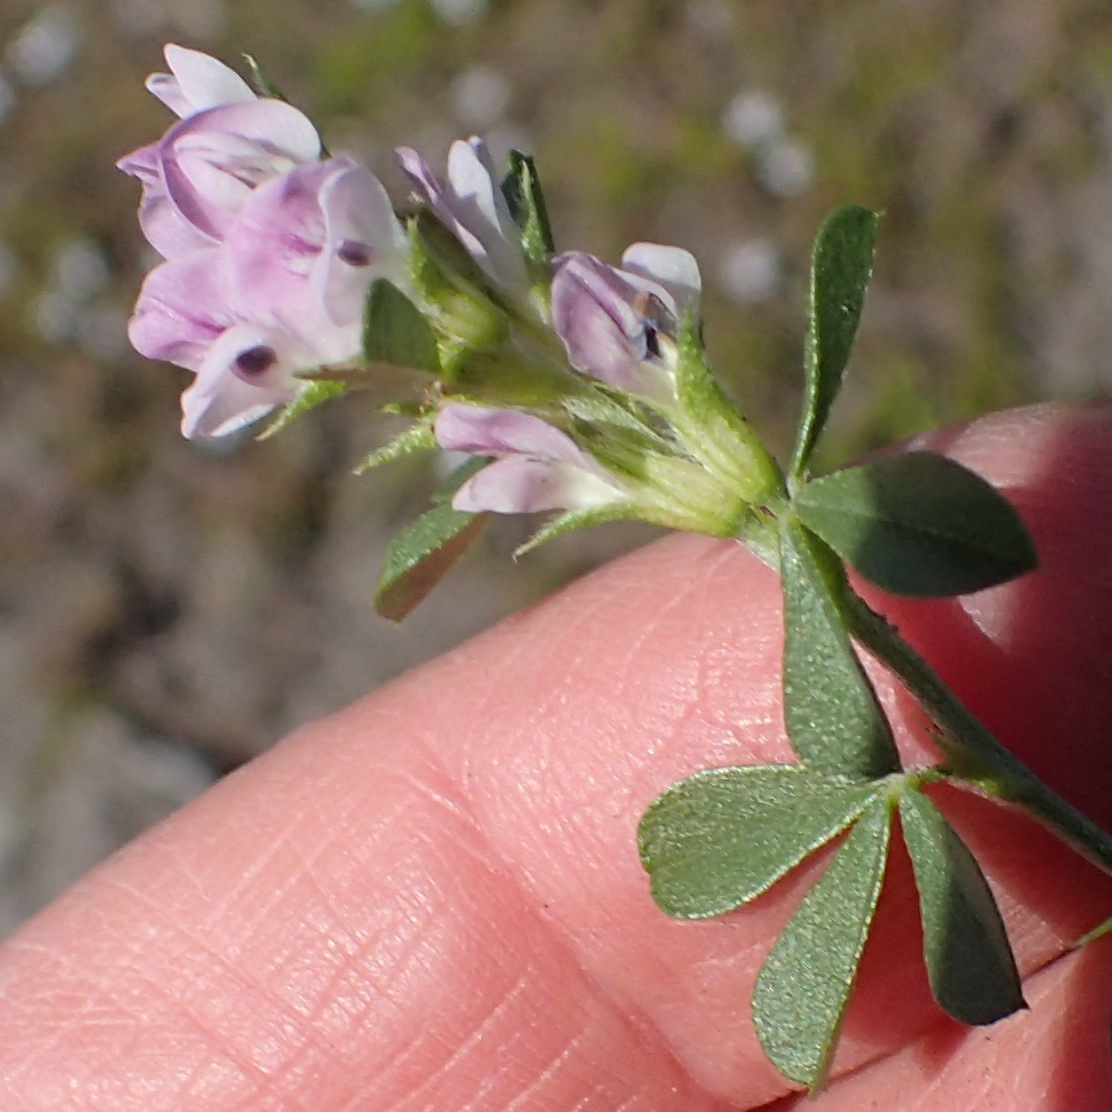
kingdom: Plantae
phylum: Tracheophyta
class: Magnoliopsida
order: Fabales
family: Fabaceae
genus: Psoralea
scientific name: Psoralea
